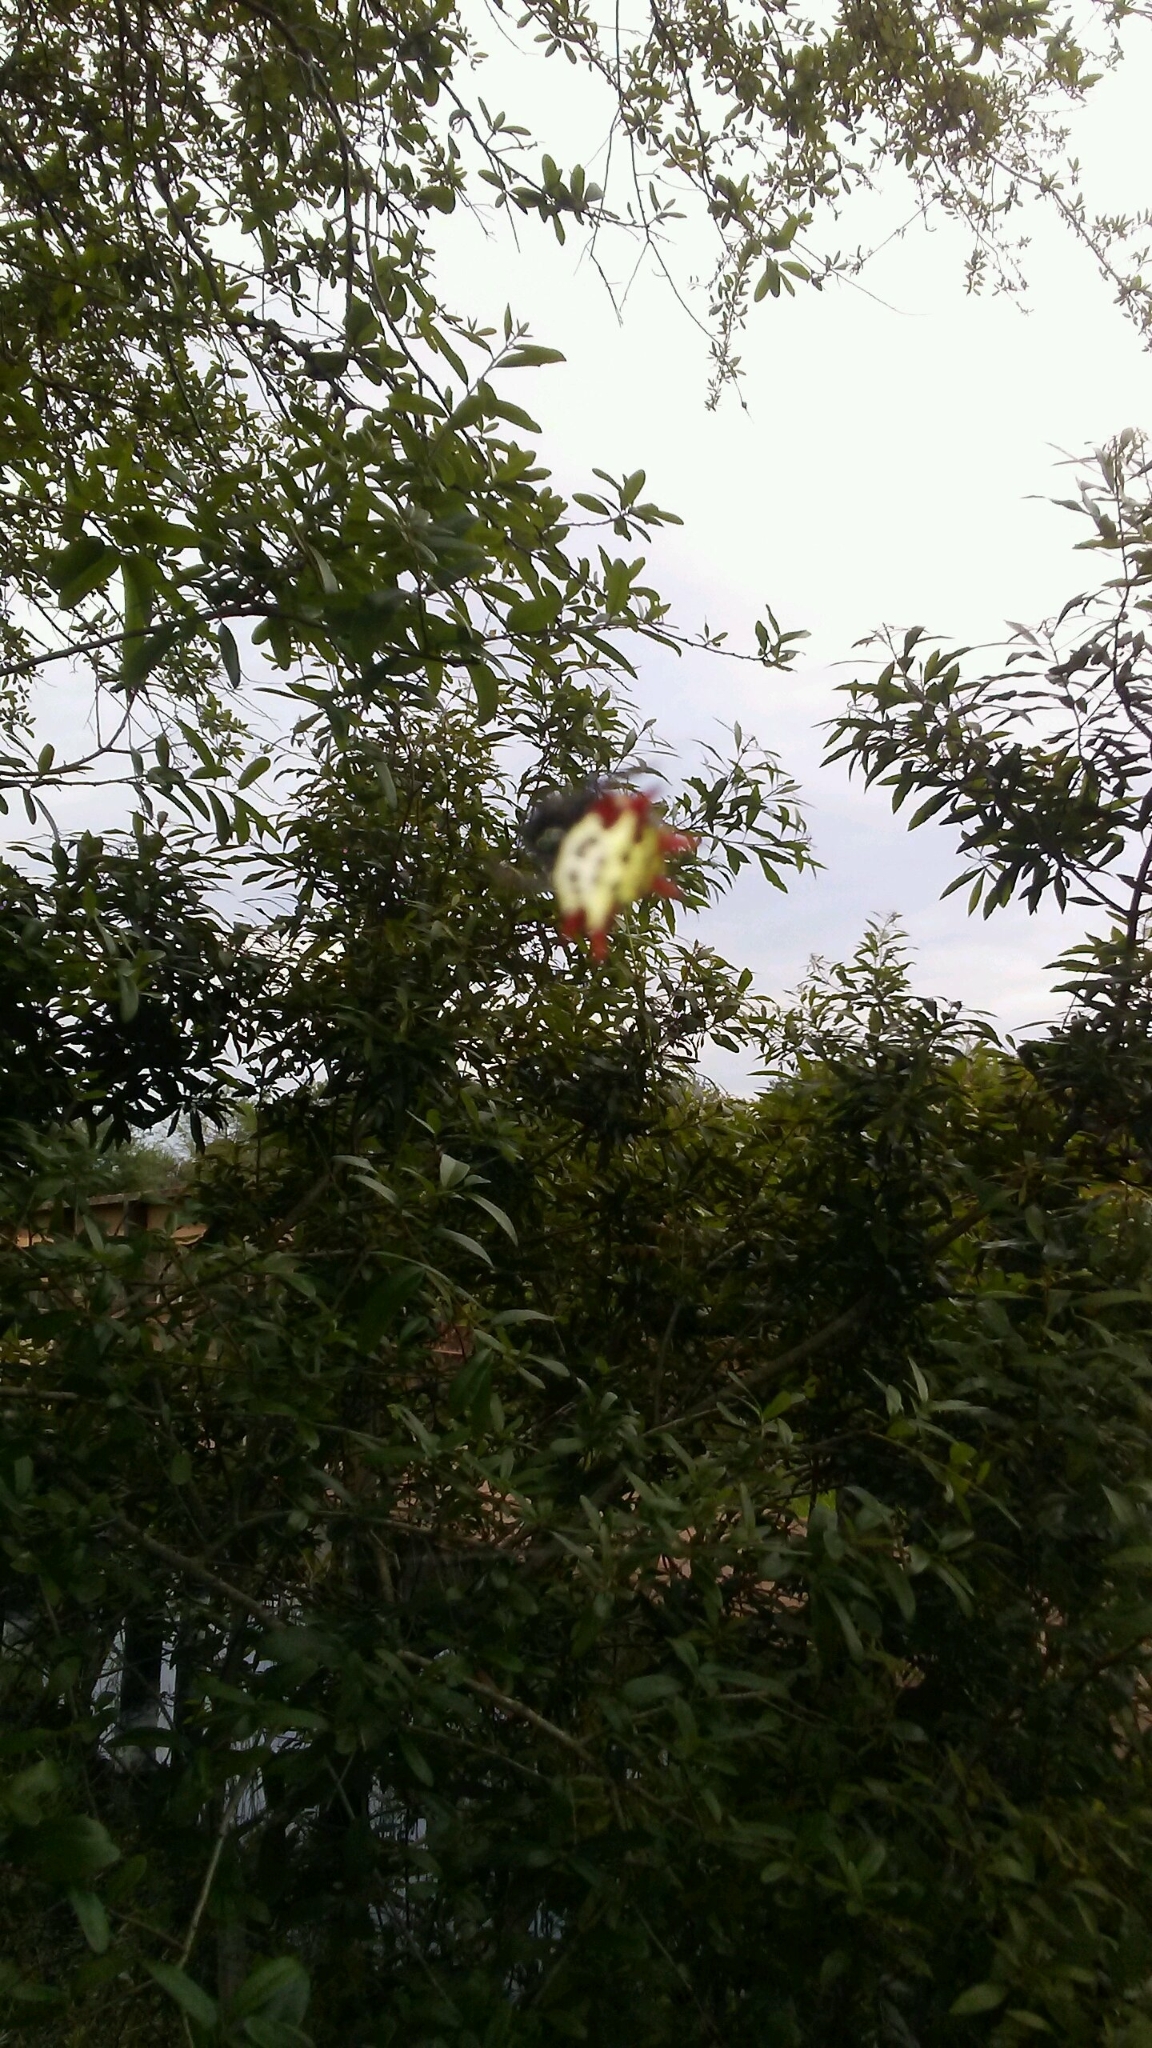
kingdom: Animalia
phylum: Arthropoda
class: Arachnida
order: Araneae
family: Araneidae
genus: Gasteracantha
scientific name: Gasteracantha cancriformis
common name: Orb weavers
